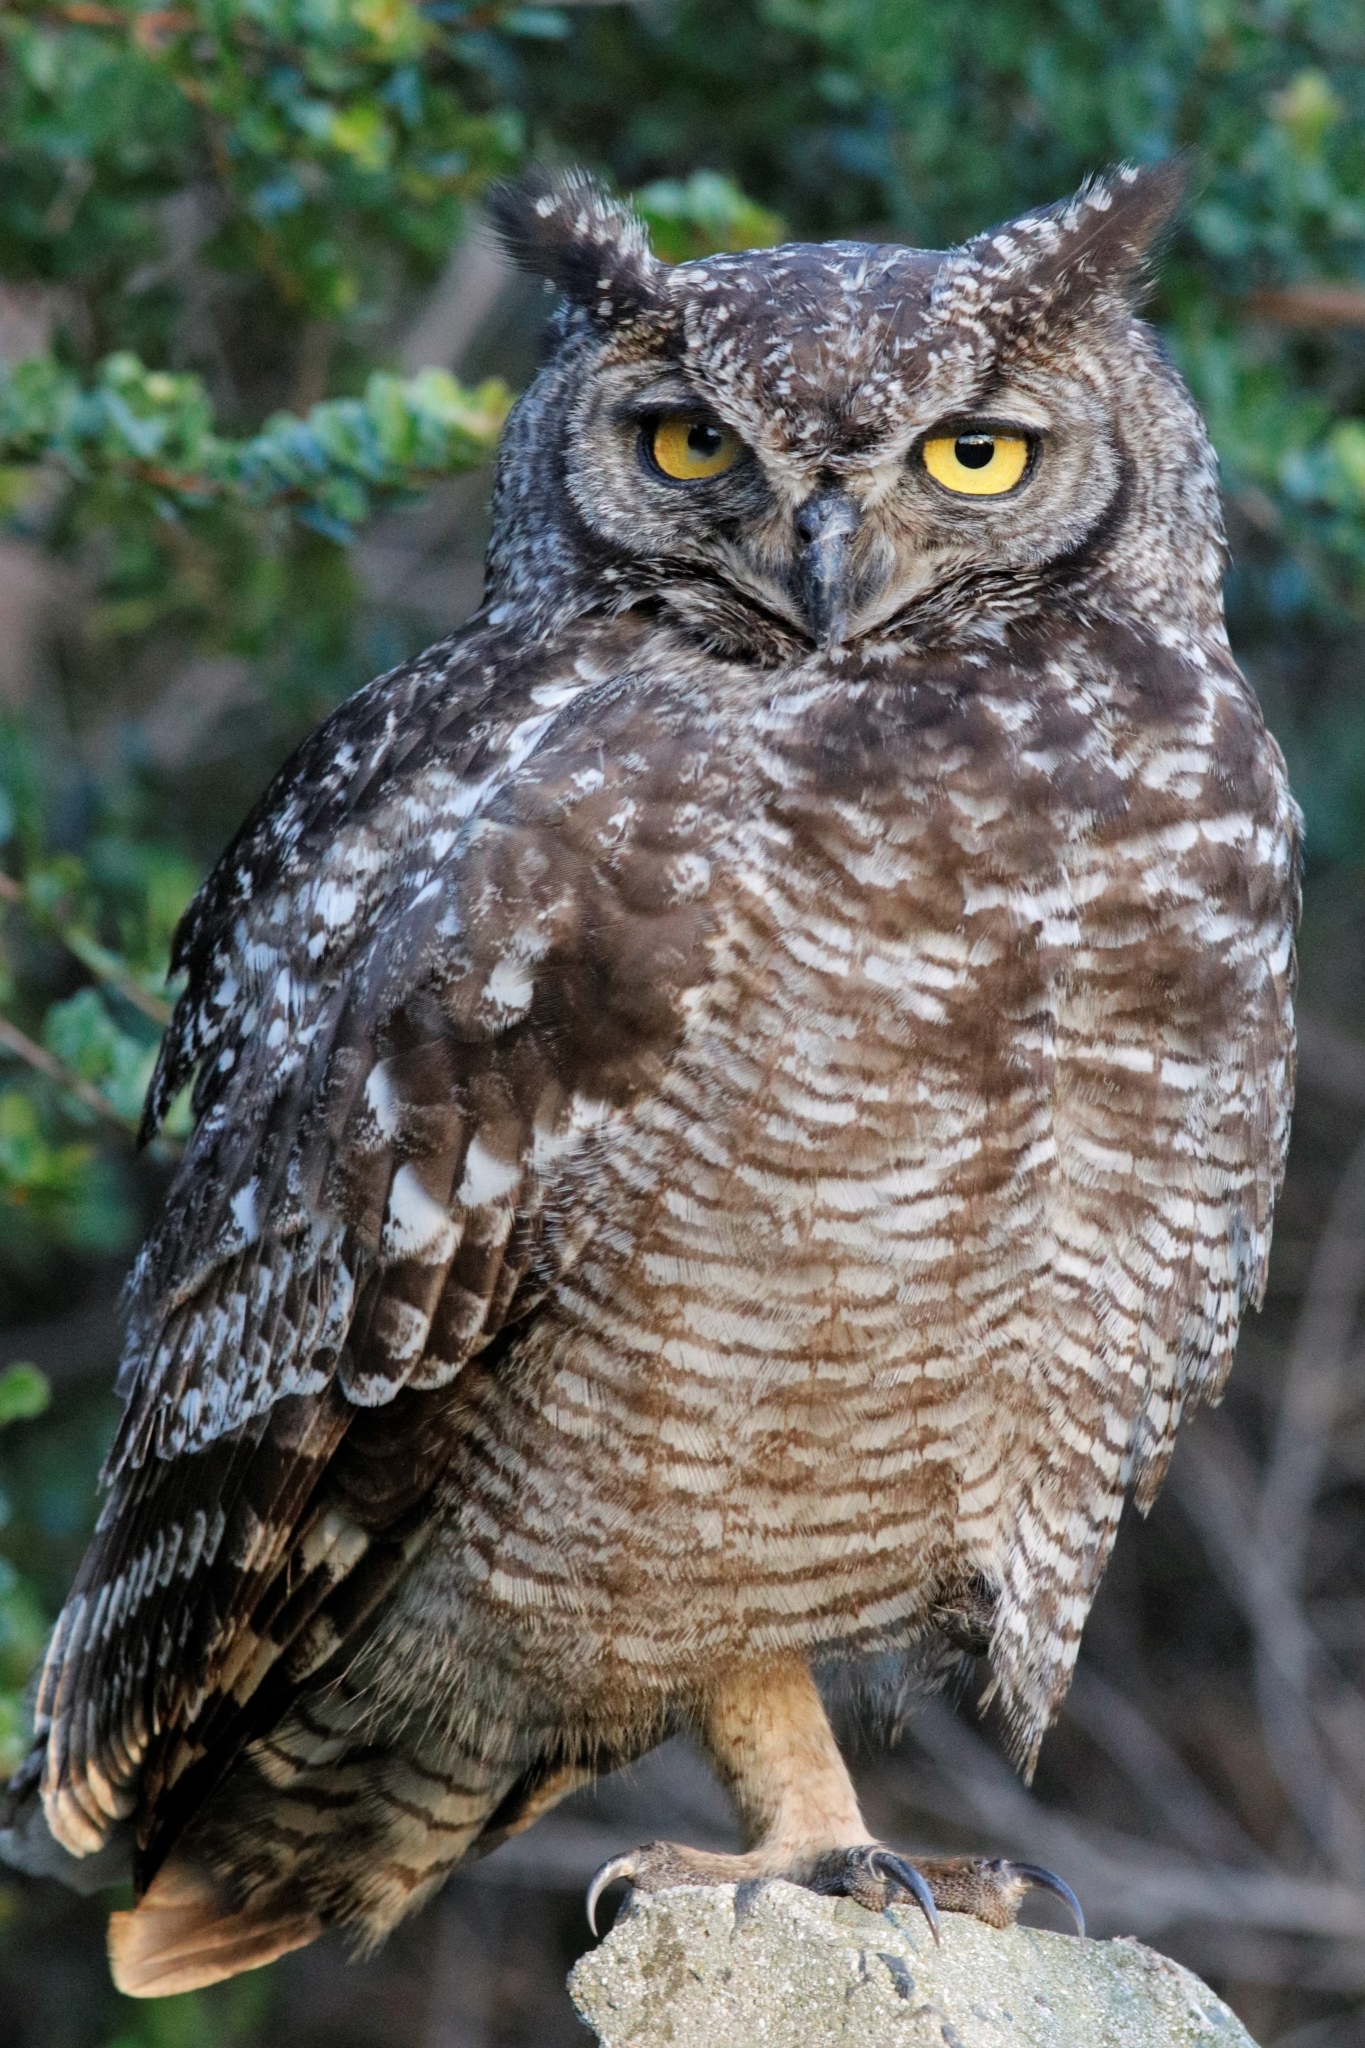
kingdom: Animalia
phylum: Chordata
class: Aves
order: Strigiformes
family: Strigidae
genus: Bubo
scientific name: Bubo africanus
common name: Spotted eagle-owl
